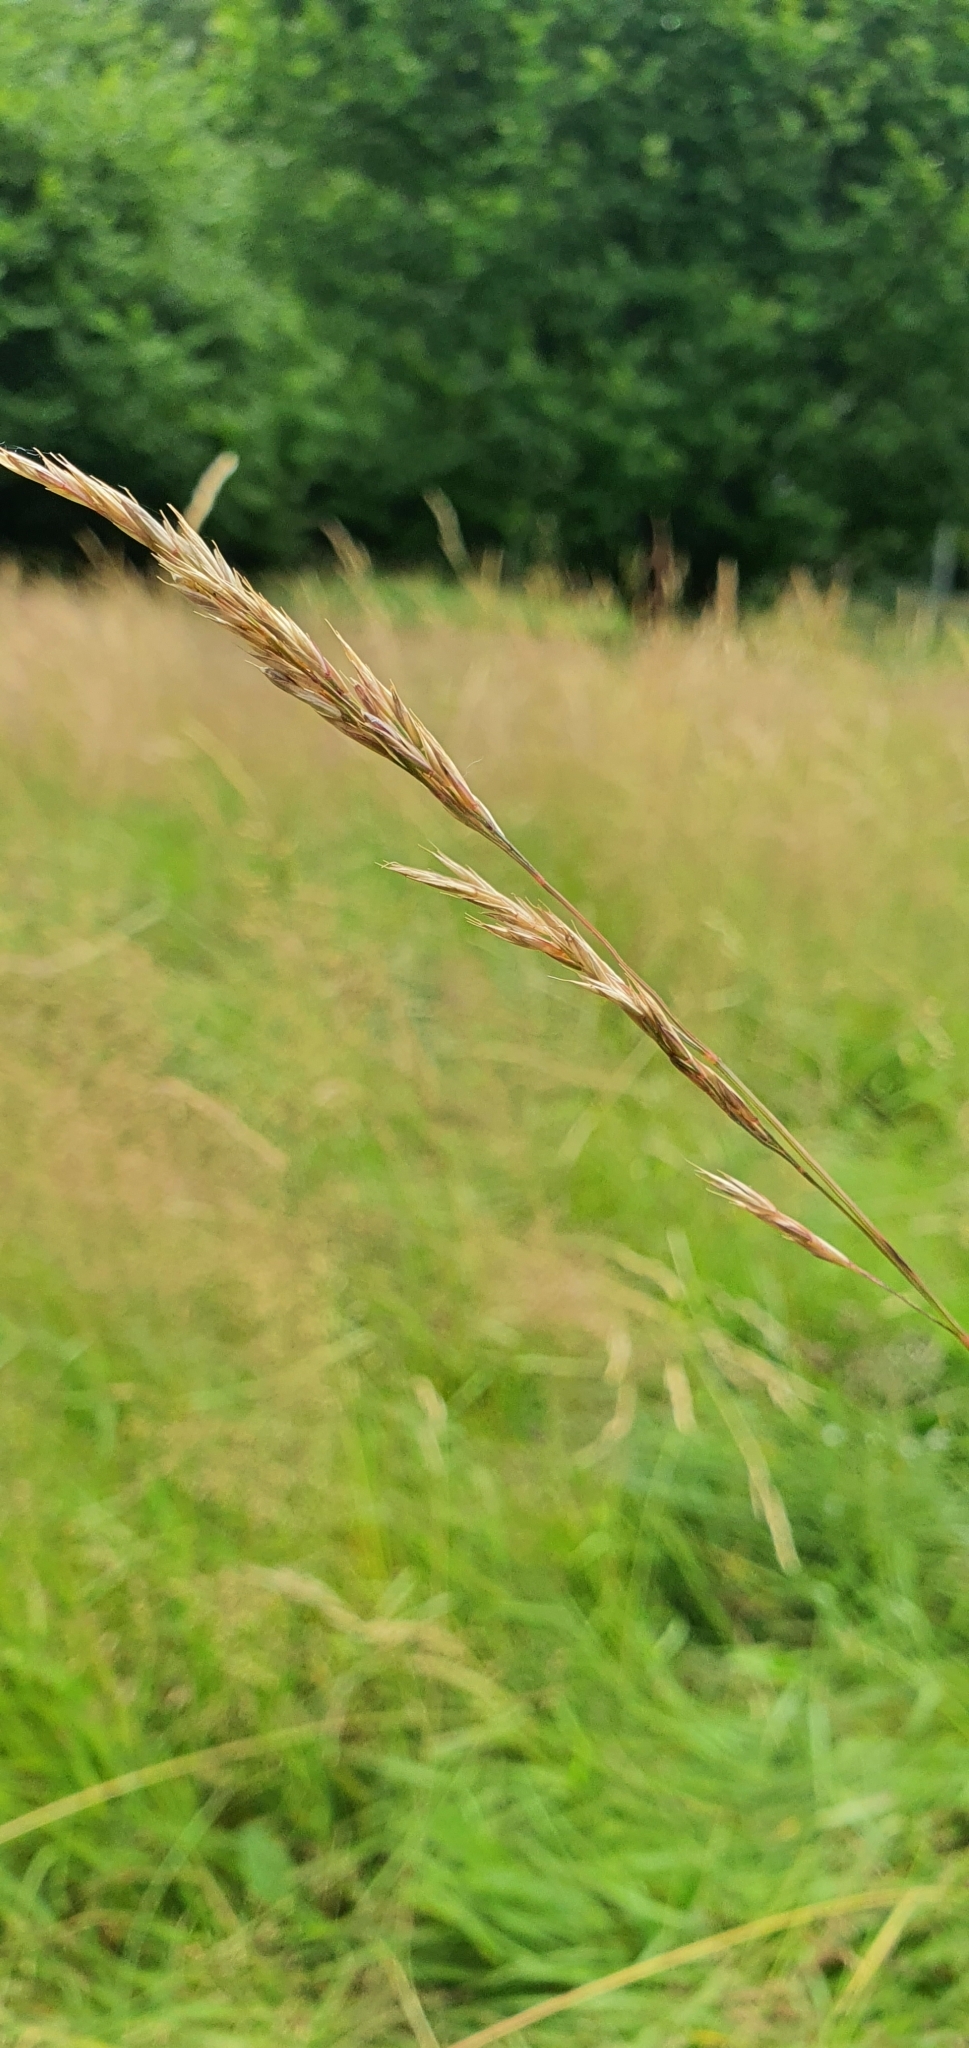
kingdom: Plantae
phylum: Tracheophyta
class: Liliopsida
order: Poales
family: Poaceae
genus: Festuca
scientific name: Festuca rubra
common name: Red fescue
